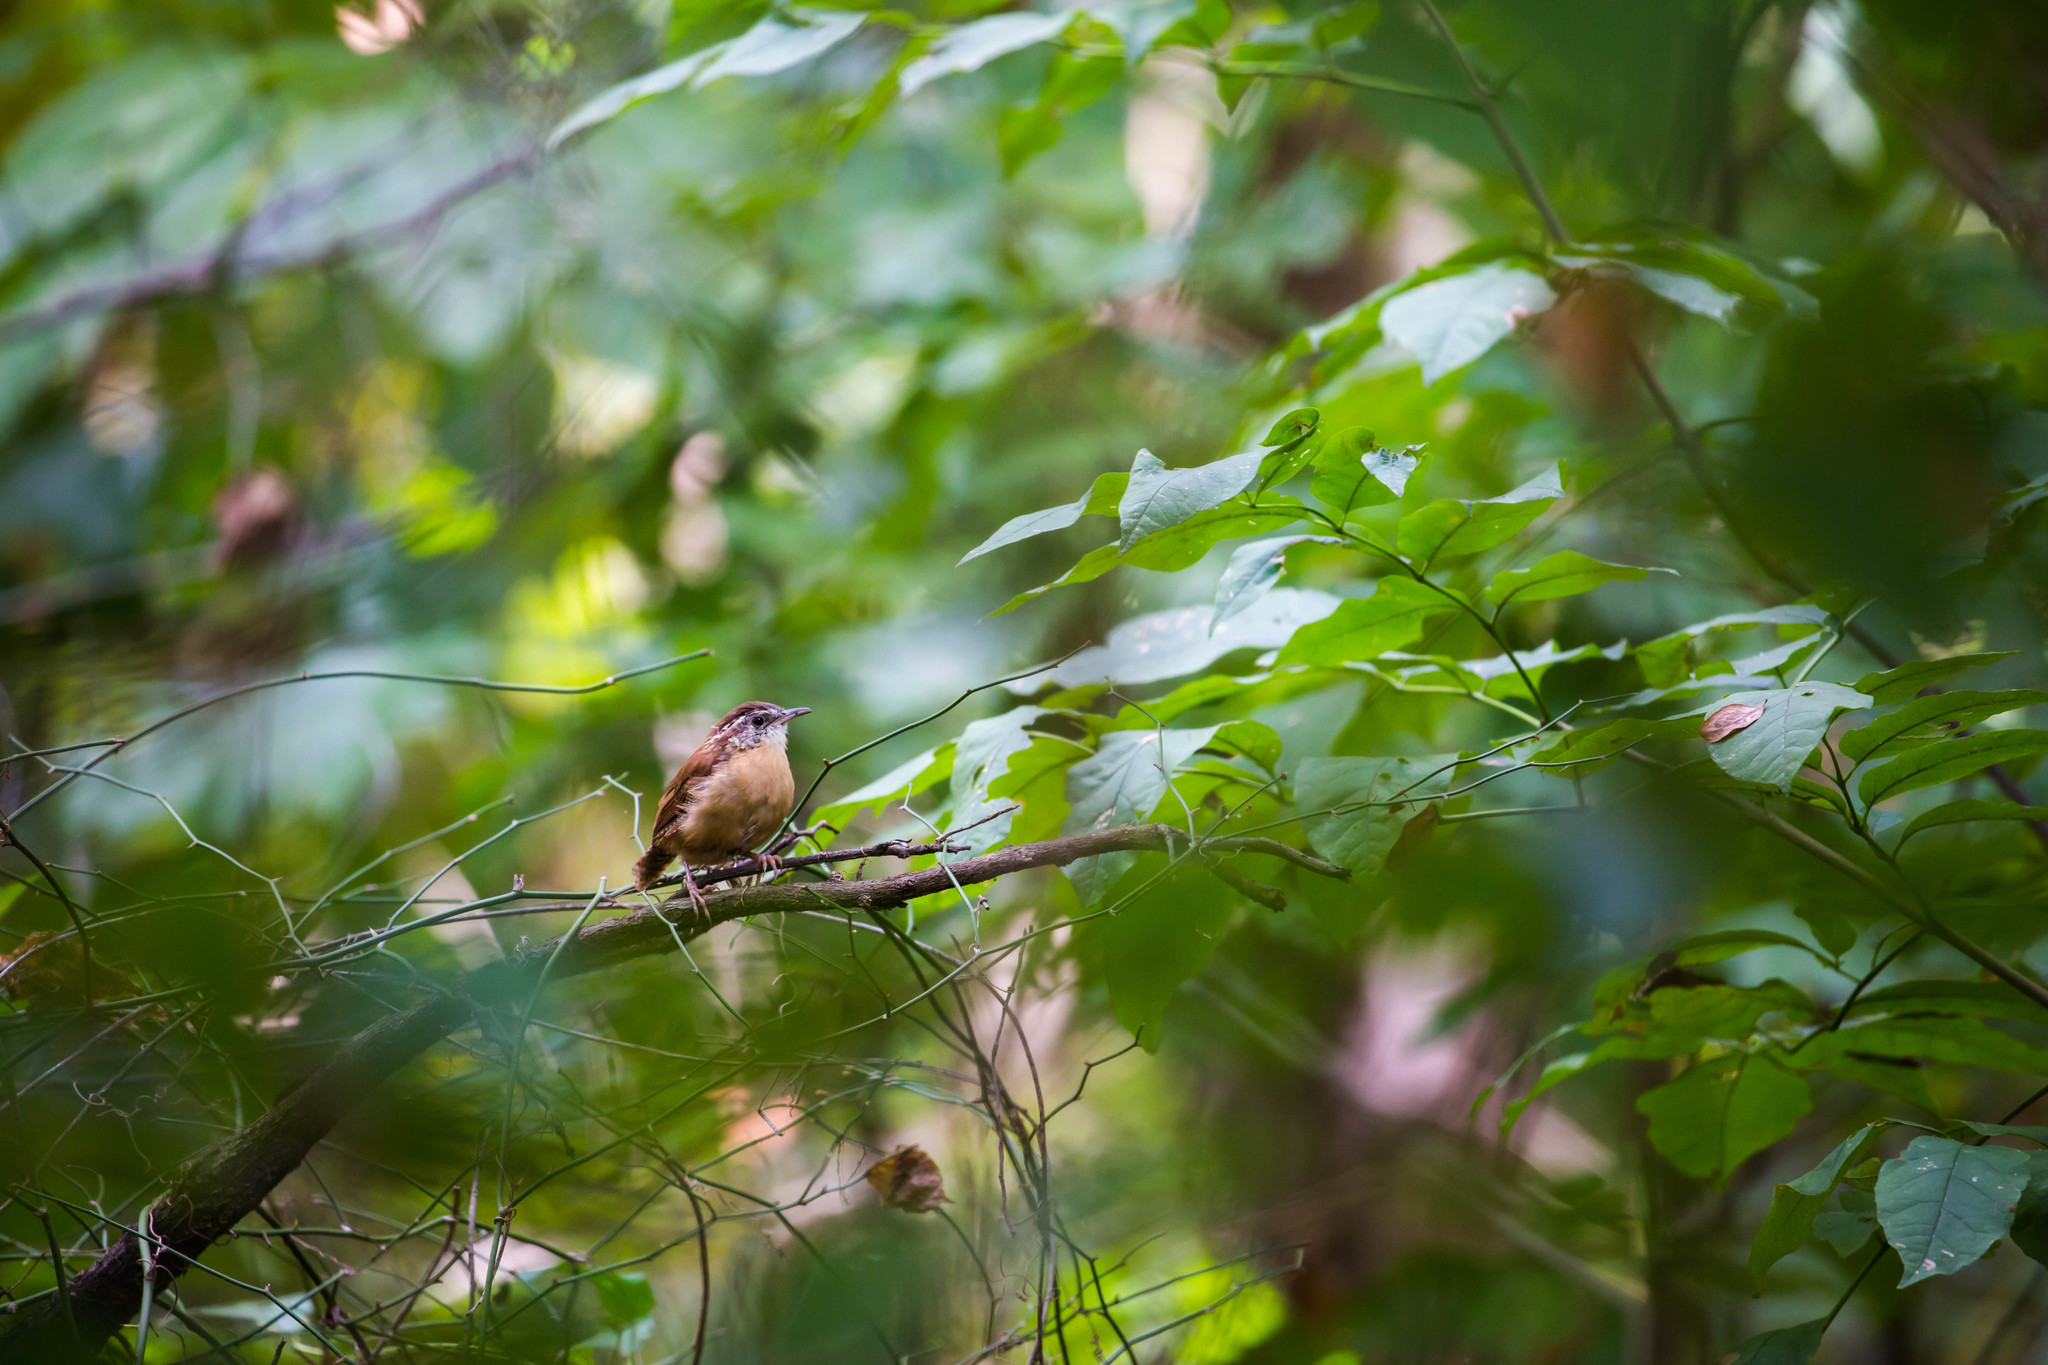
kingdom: Animalia
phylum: Chordata
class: Aves
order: Passeriformes
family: Troglodytidae
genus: Thryothorus
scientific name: Thryothorus ludovicianus
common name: Carolina wren
